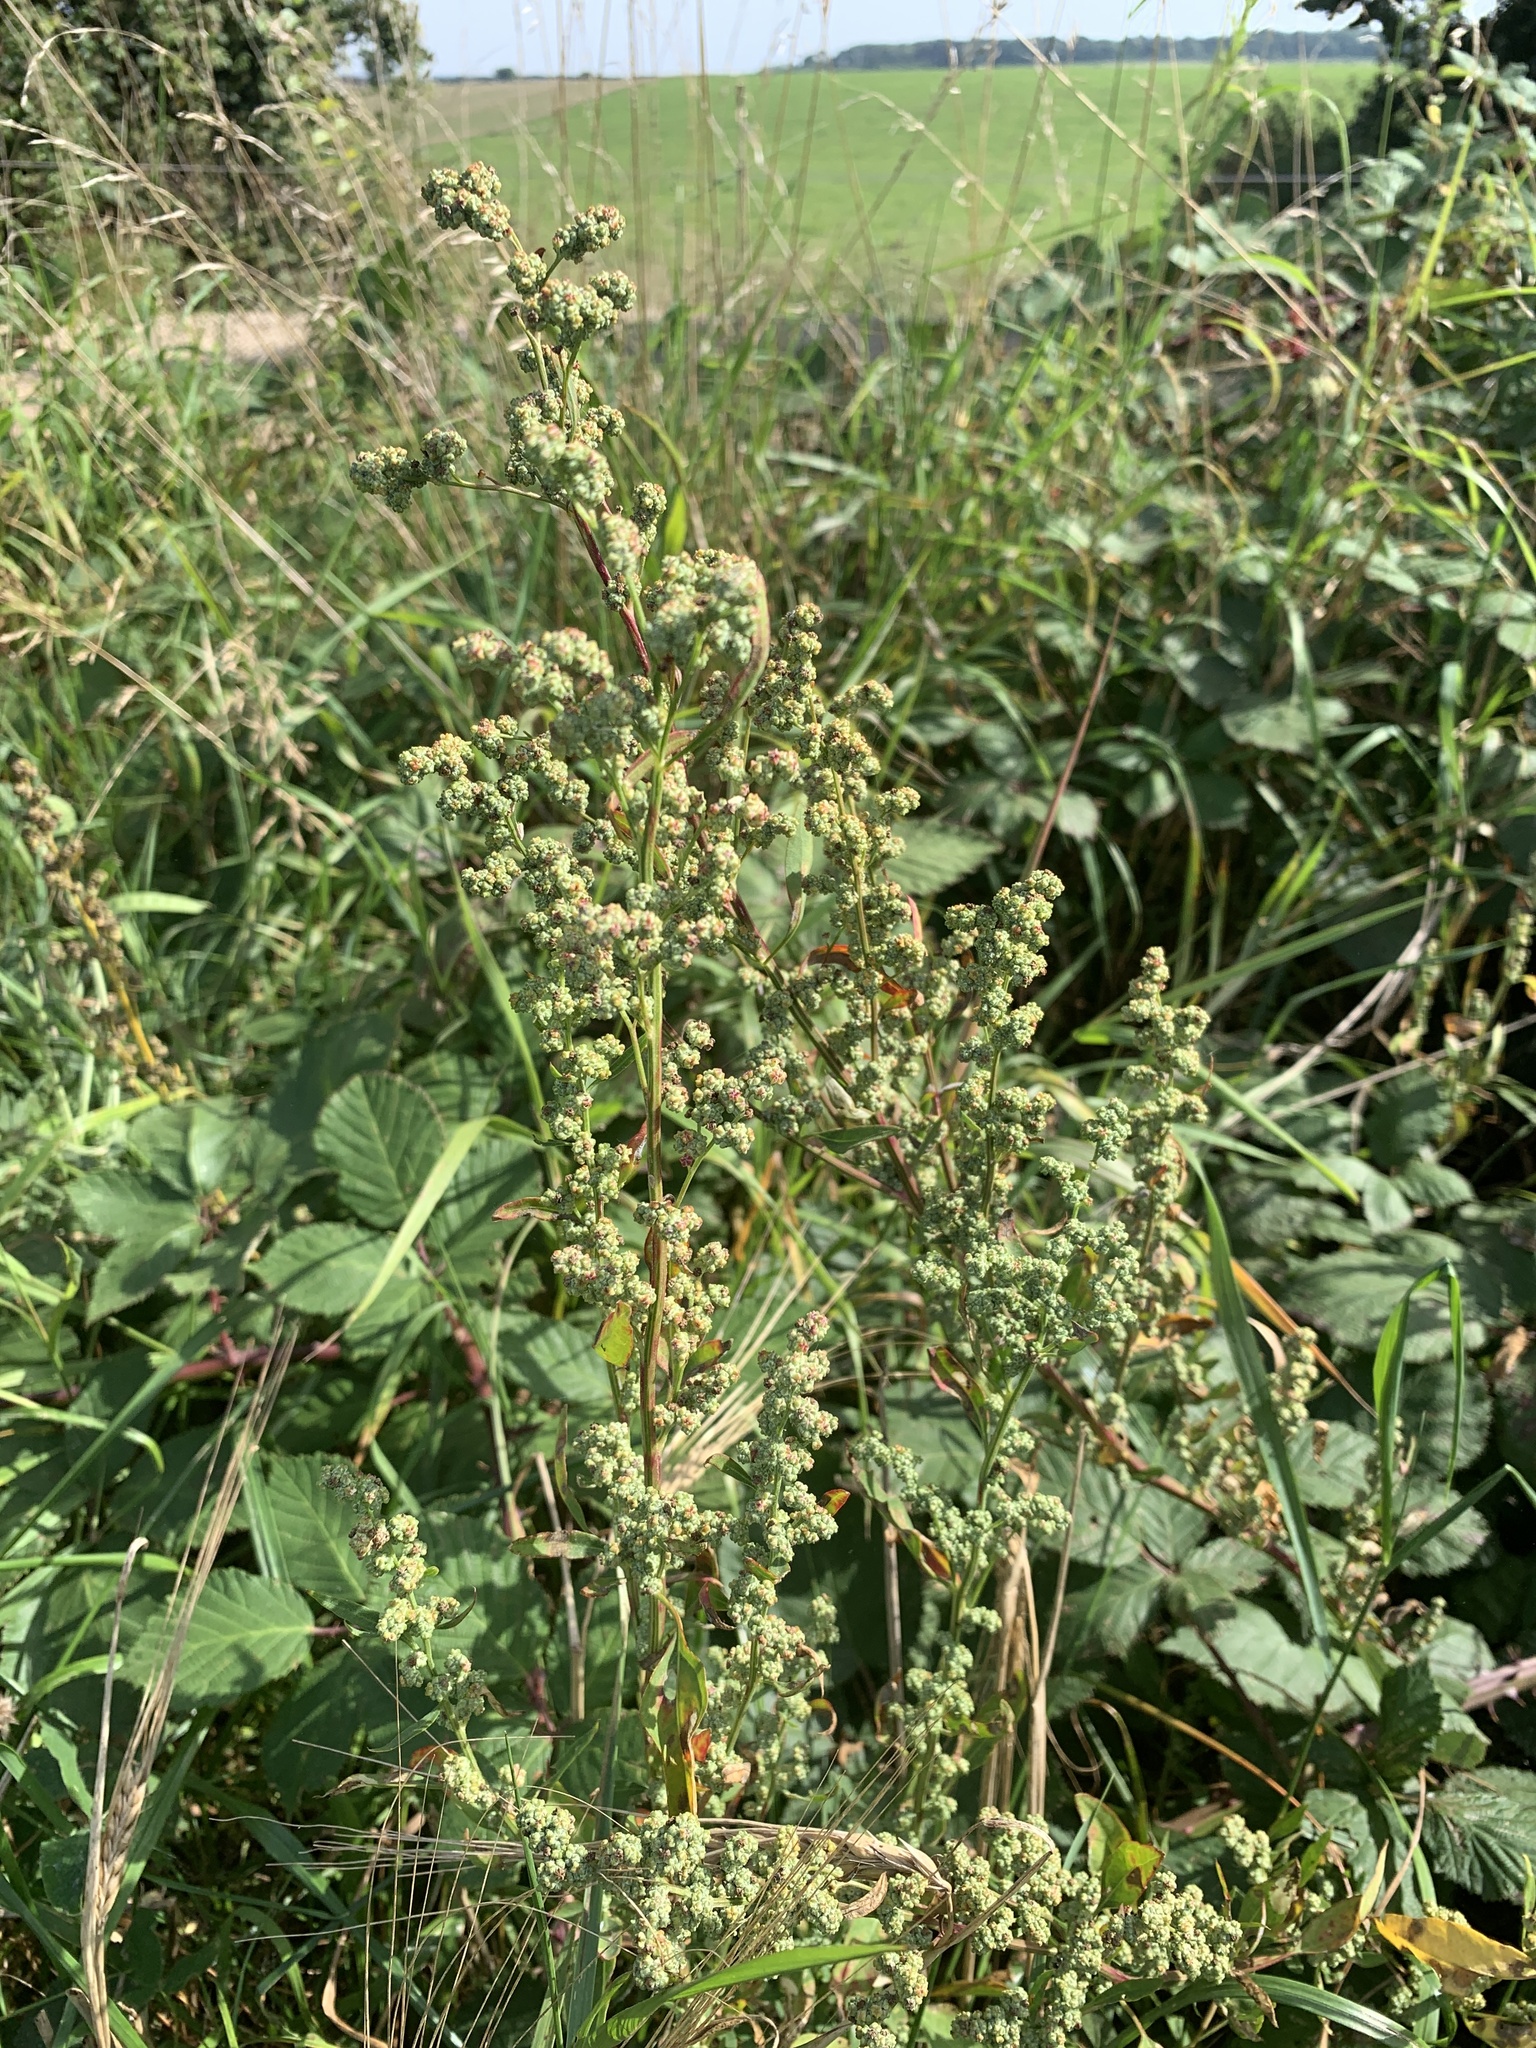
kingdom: Plantae
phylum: Tracheophyta
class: Magnoliopsida
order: Caryophyllales
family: Amaranthaceae
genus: Chenopodium
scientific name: Chenopodium album
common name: Fat-hen
